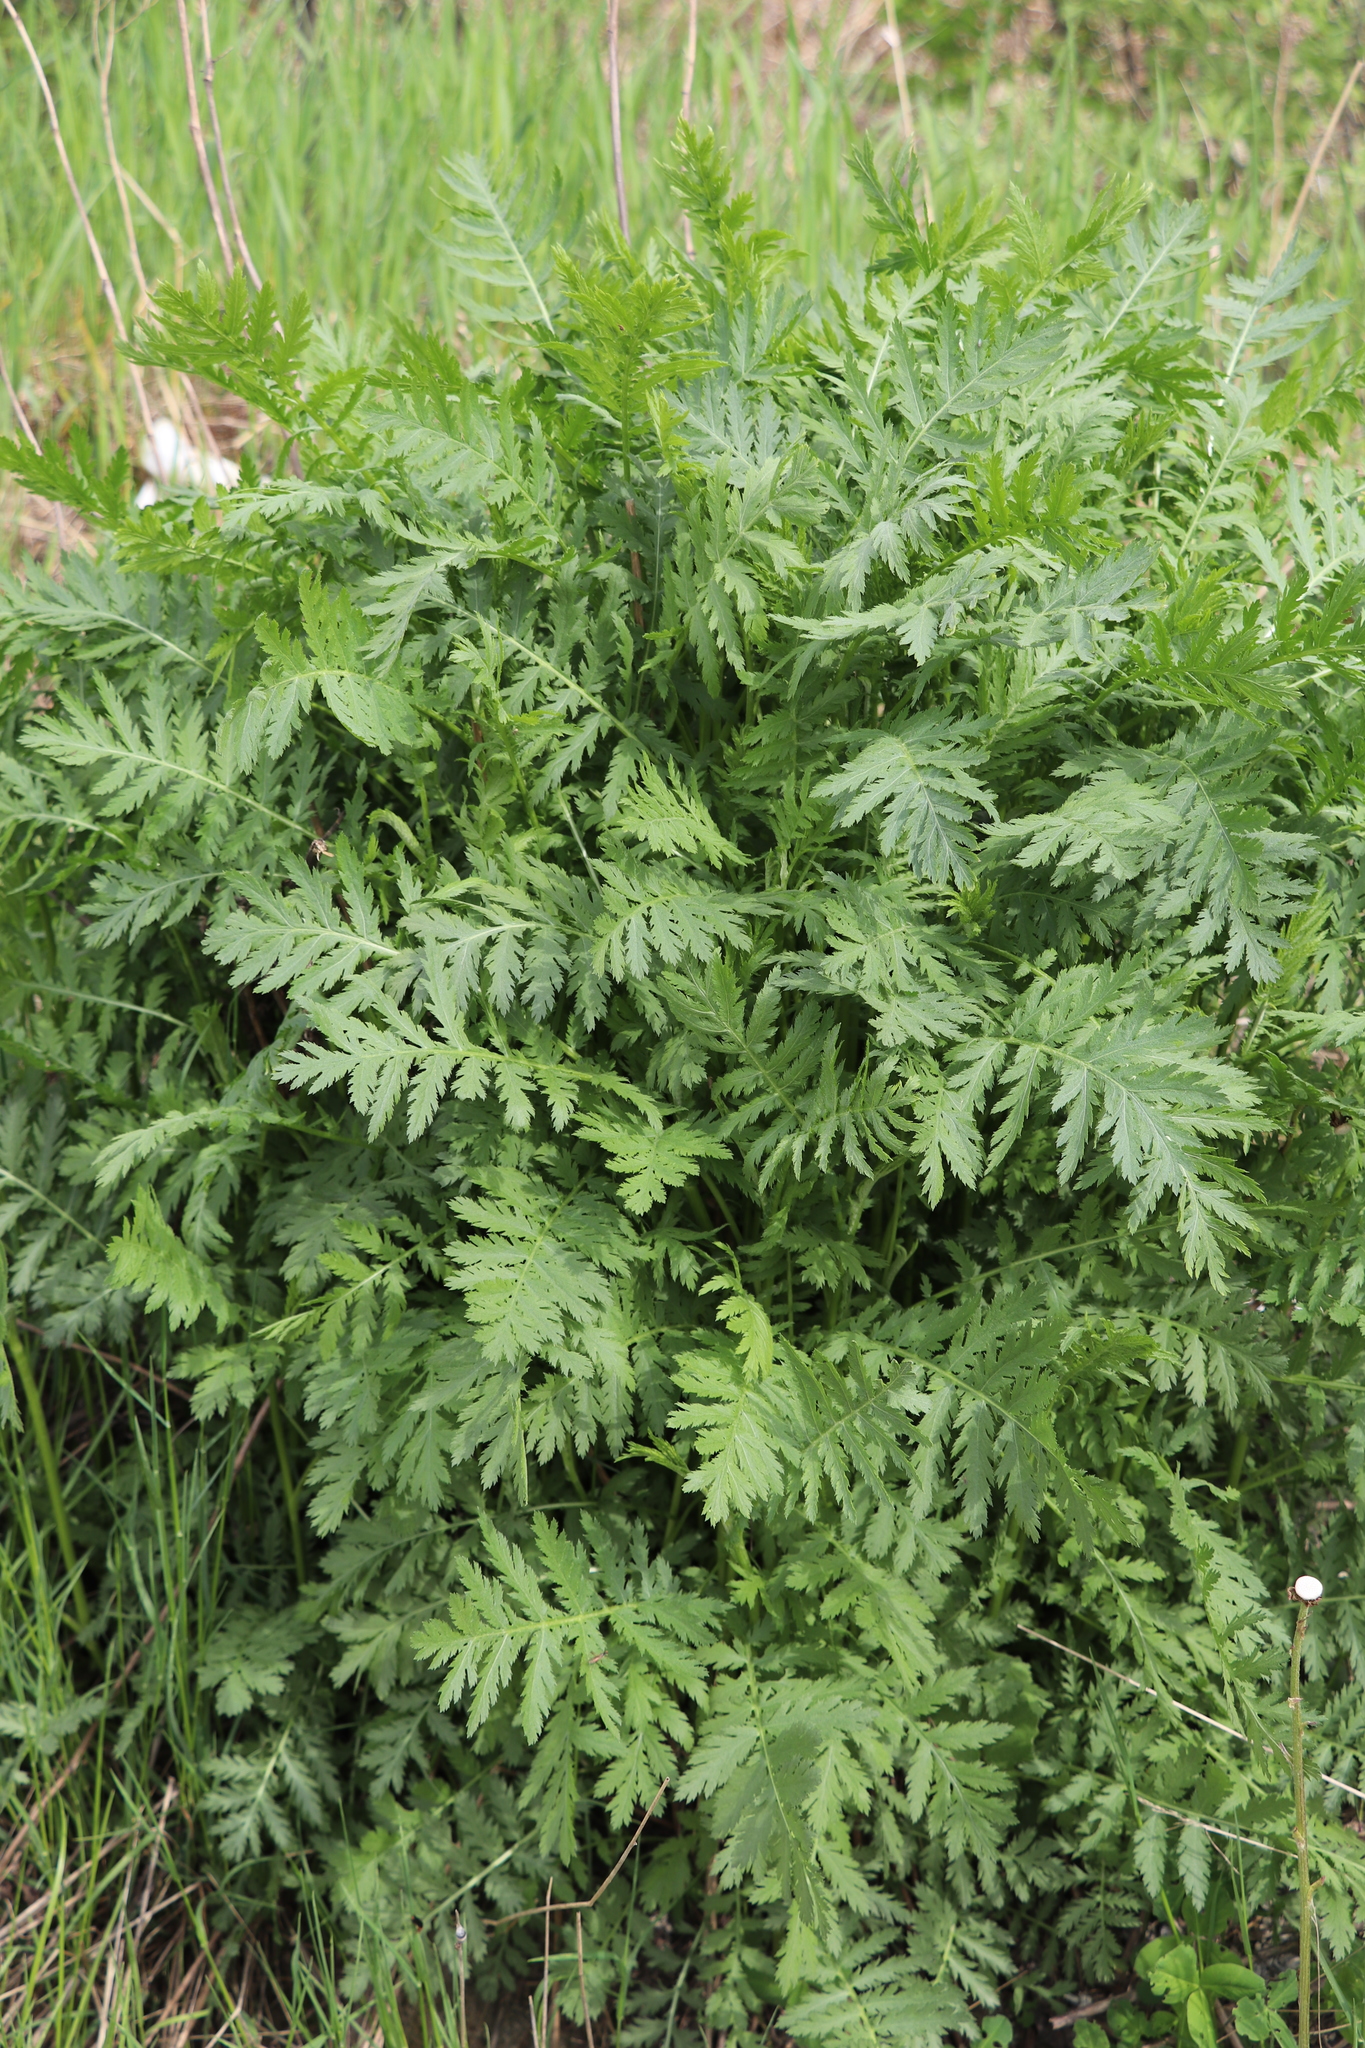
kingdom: Plantae
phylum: Tracheophyta
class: Magnoliopsida
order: Asterales
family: Asteraceae
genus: Tanacetum
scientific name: Tanacetum vulgare
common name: Common tansy
